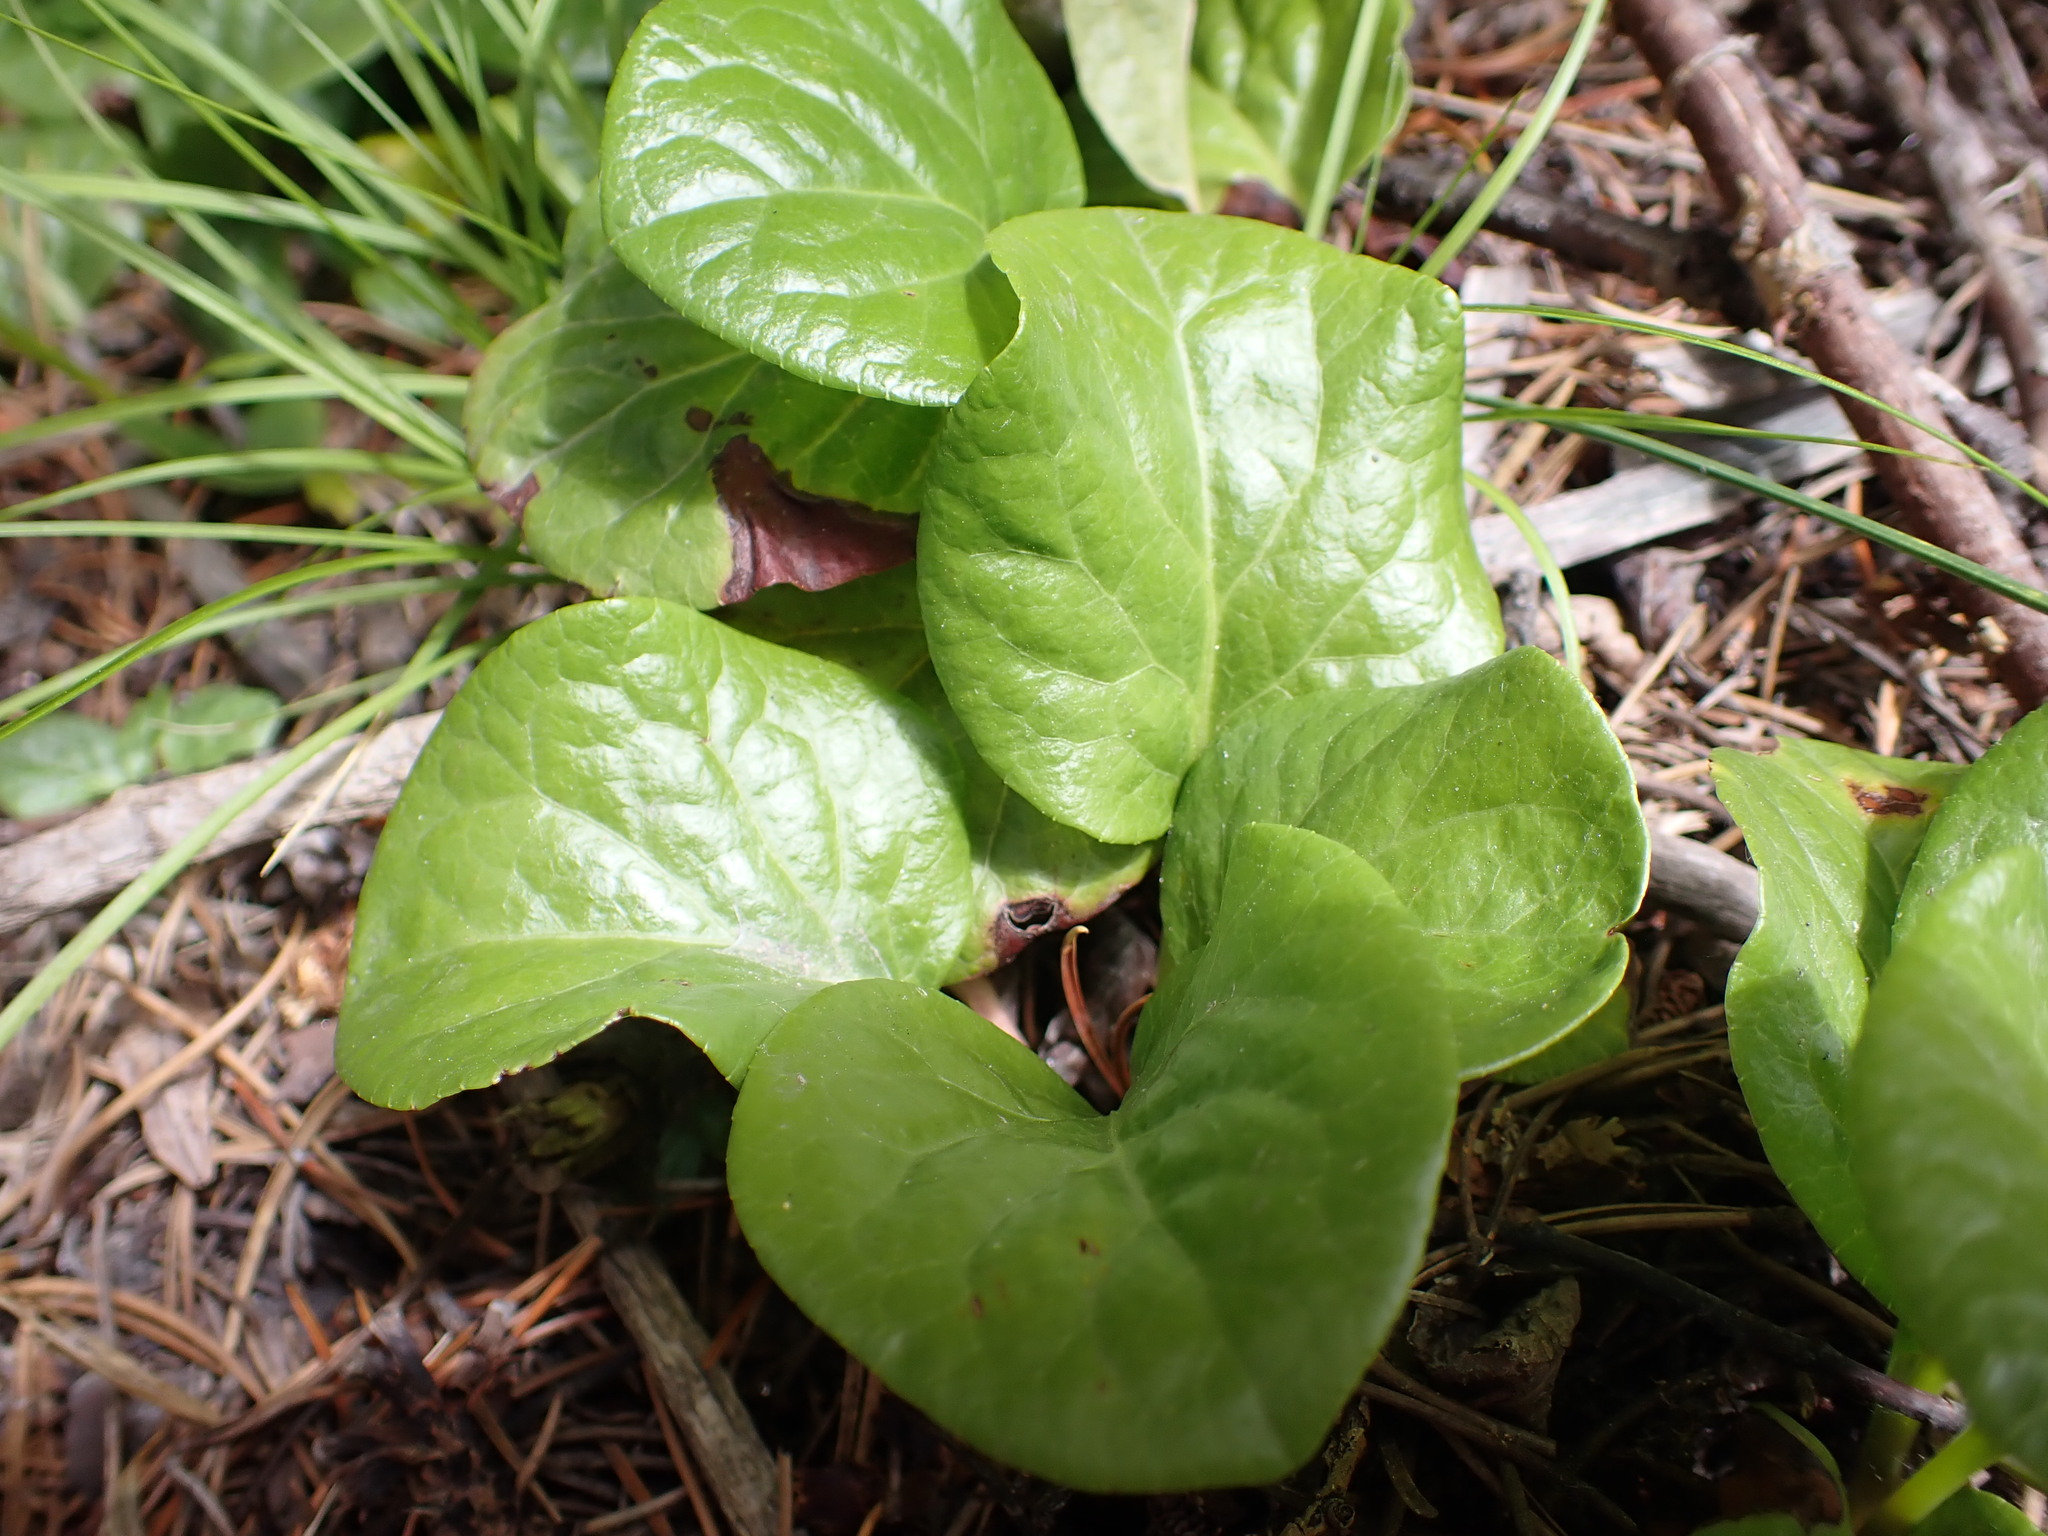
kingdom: Plantae
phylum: Tracheophyta
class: Magnoliopsida
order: Ericales
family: Ericaceae
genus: Pyrola
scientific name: Pyrola asarifolia
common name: Bog wintergreen
